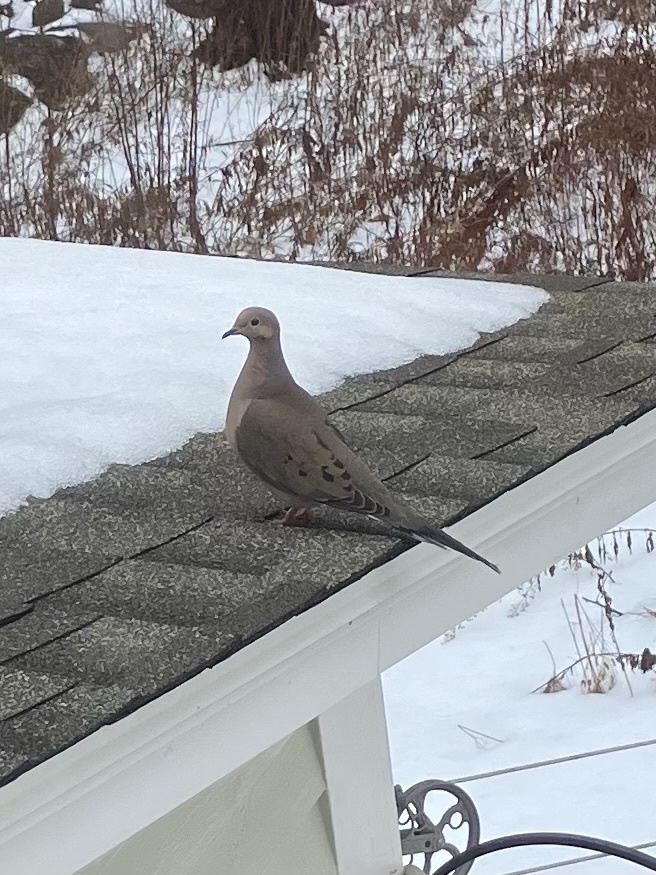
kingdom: Animalia
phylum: Chordata
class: Aves
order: Columbiformes
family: Columbidae
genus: Zenaida
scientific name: Zenaida macroura
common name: Mourning dove
